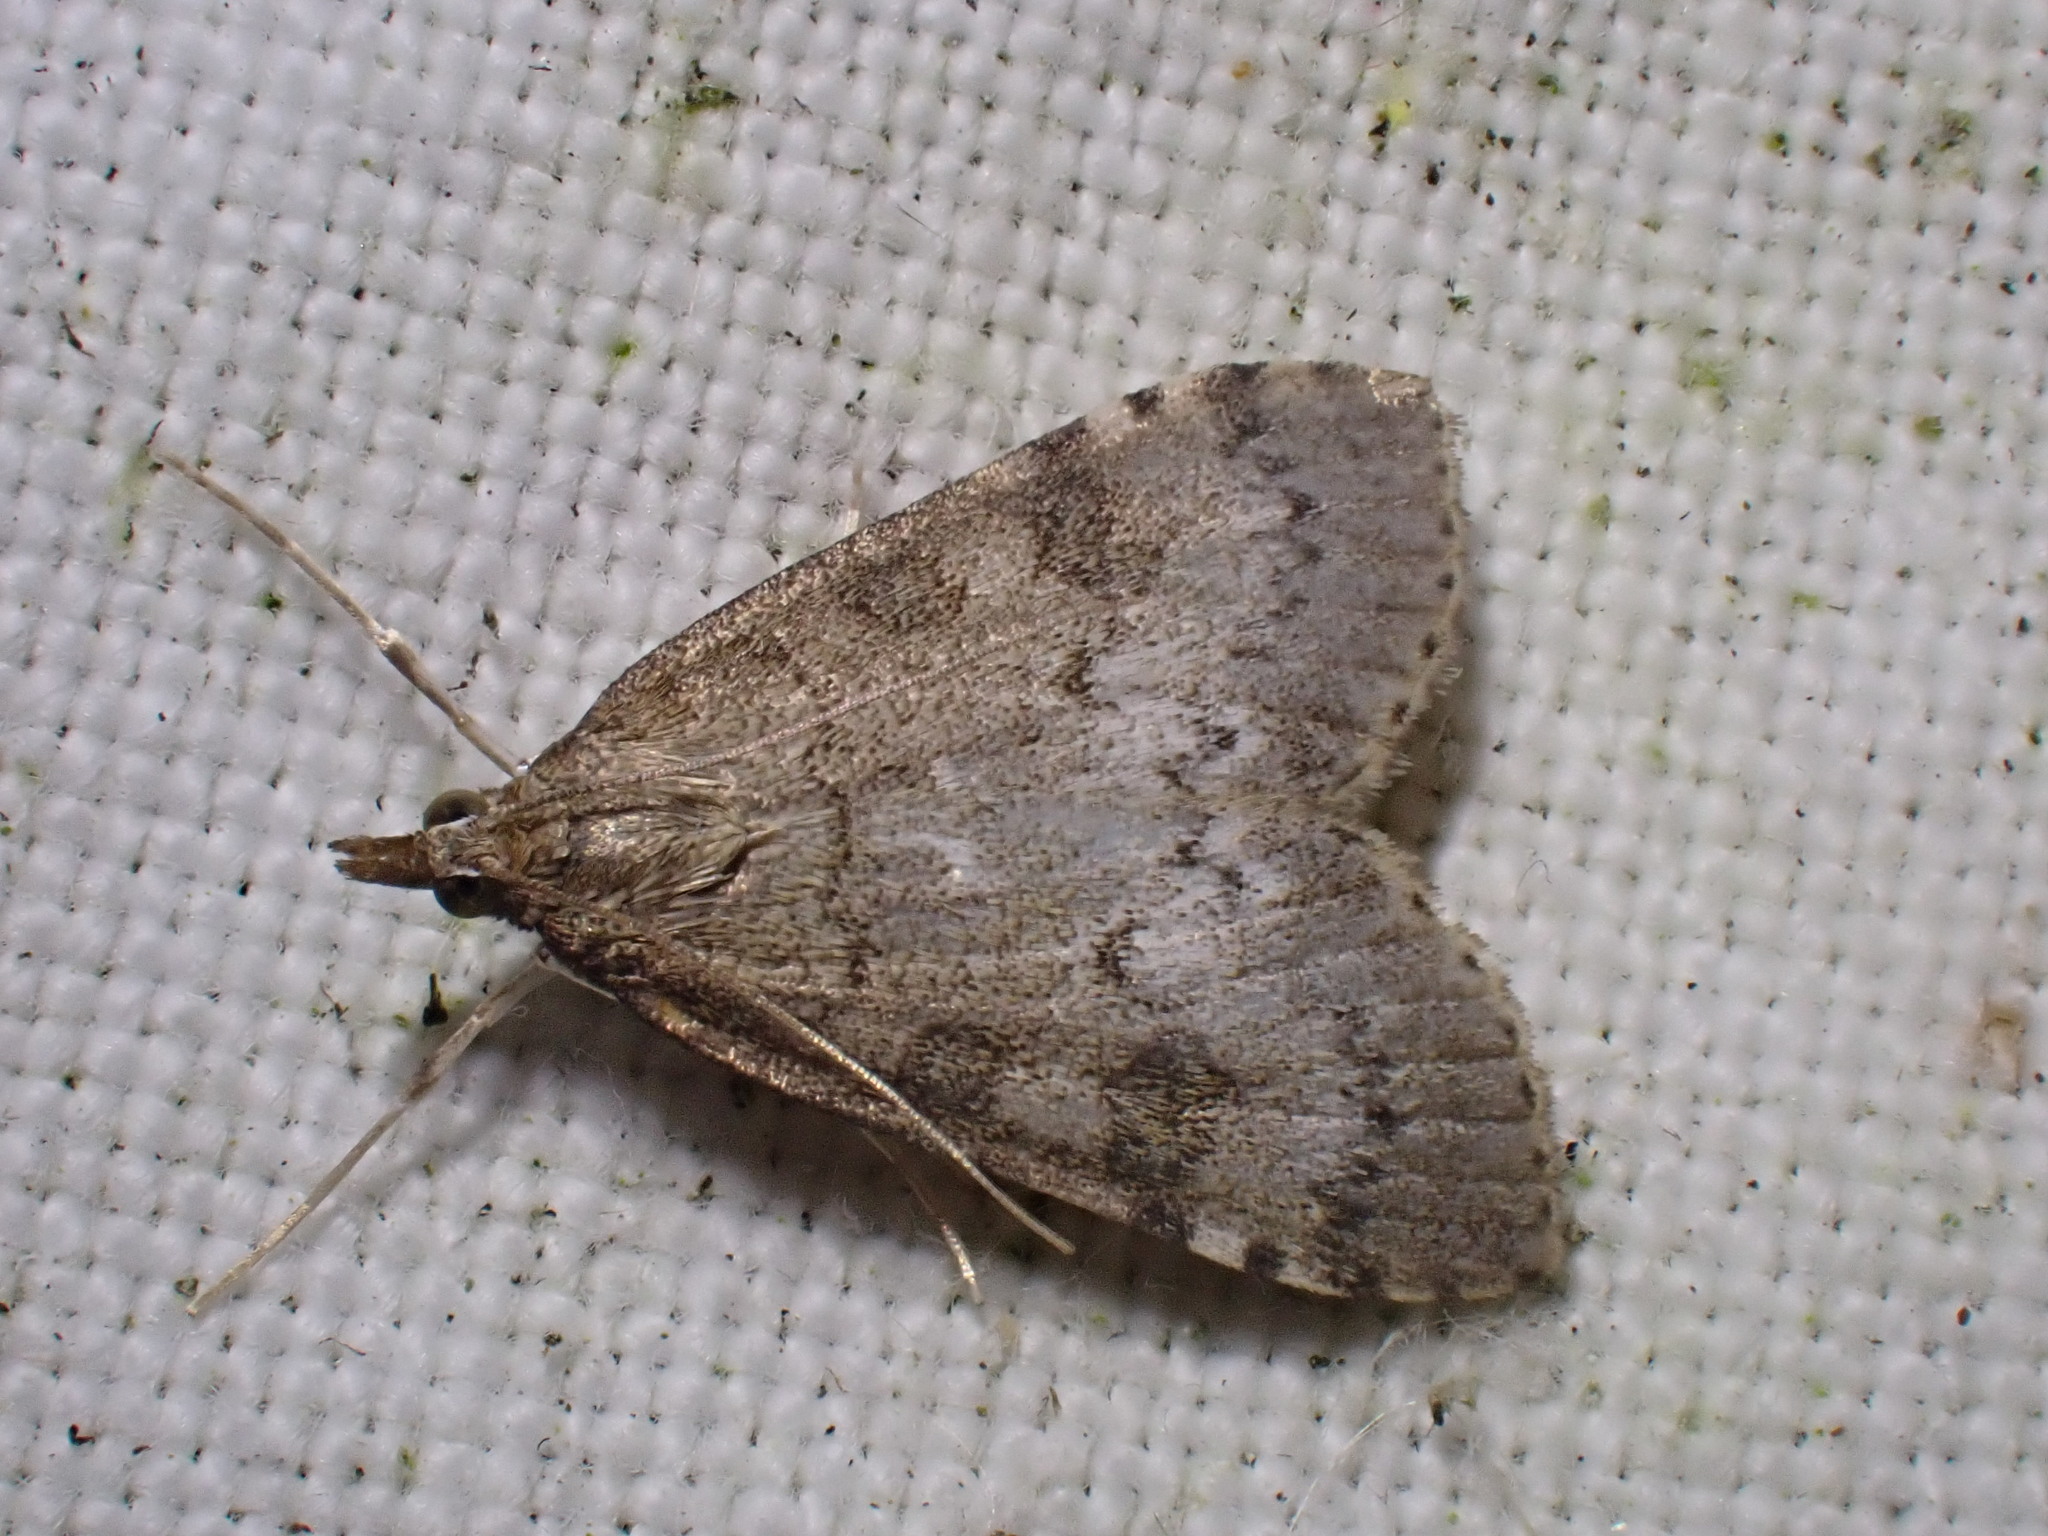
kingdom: Animalia
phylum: Arthropoda
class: Insecta
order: Lepidoptera
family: Crambidae
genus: Udea
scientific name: Udea prunalis
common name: Dusky pearl
